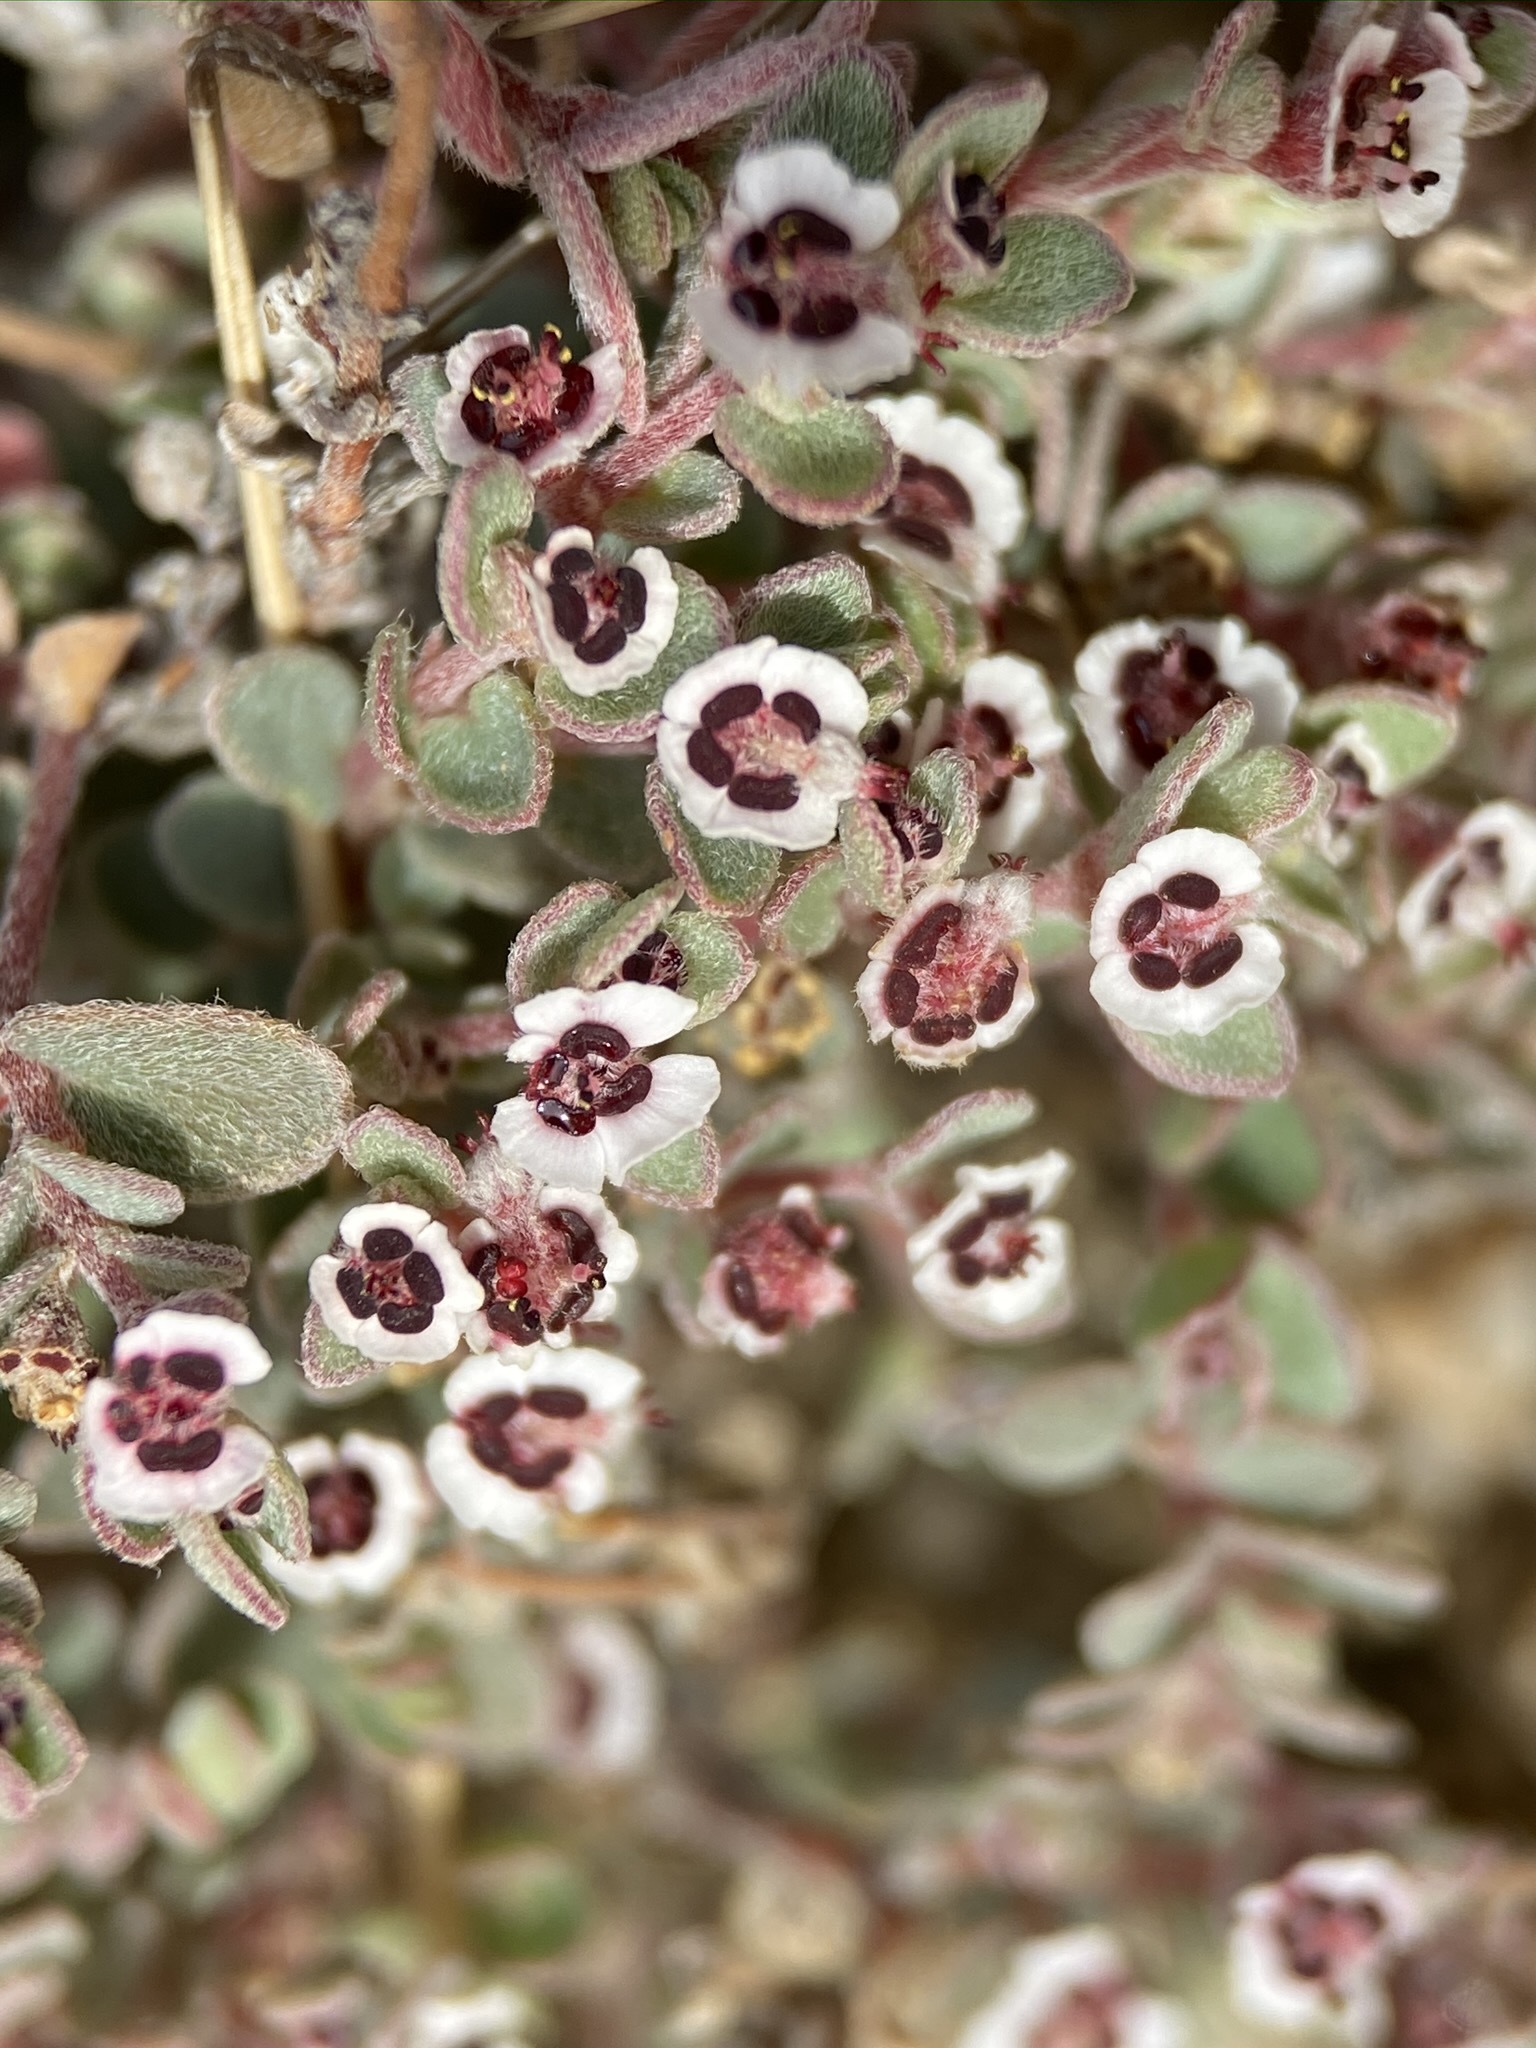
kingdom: Plantae
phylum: Tracheophyta
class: Magnoliopsida
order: Malpighiales
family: Euphorbiaceae
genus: Euphorbia
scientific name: Euphorbia melanadenia
